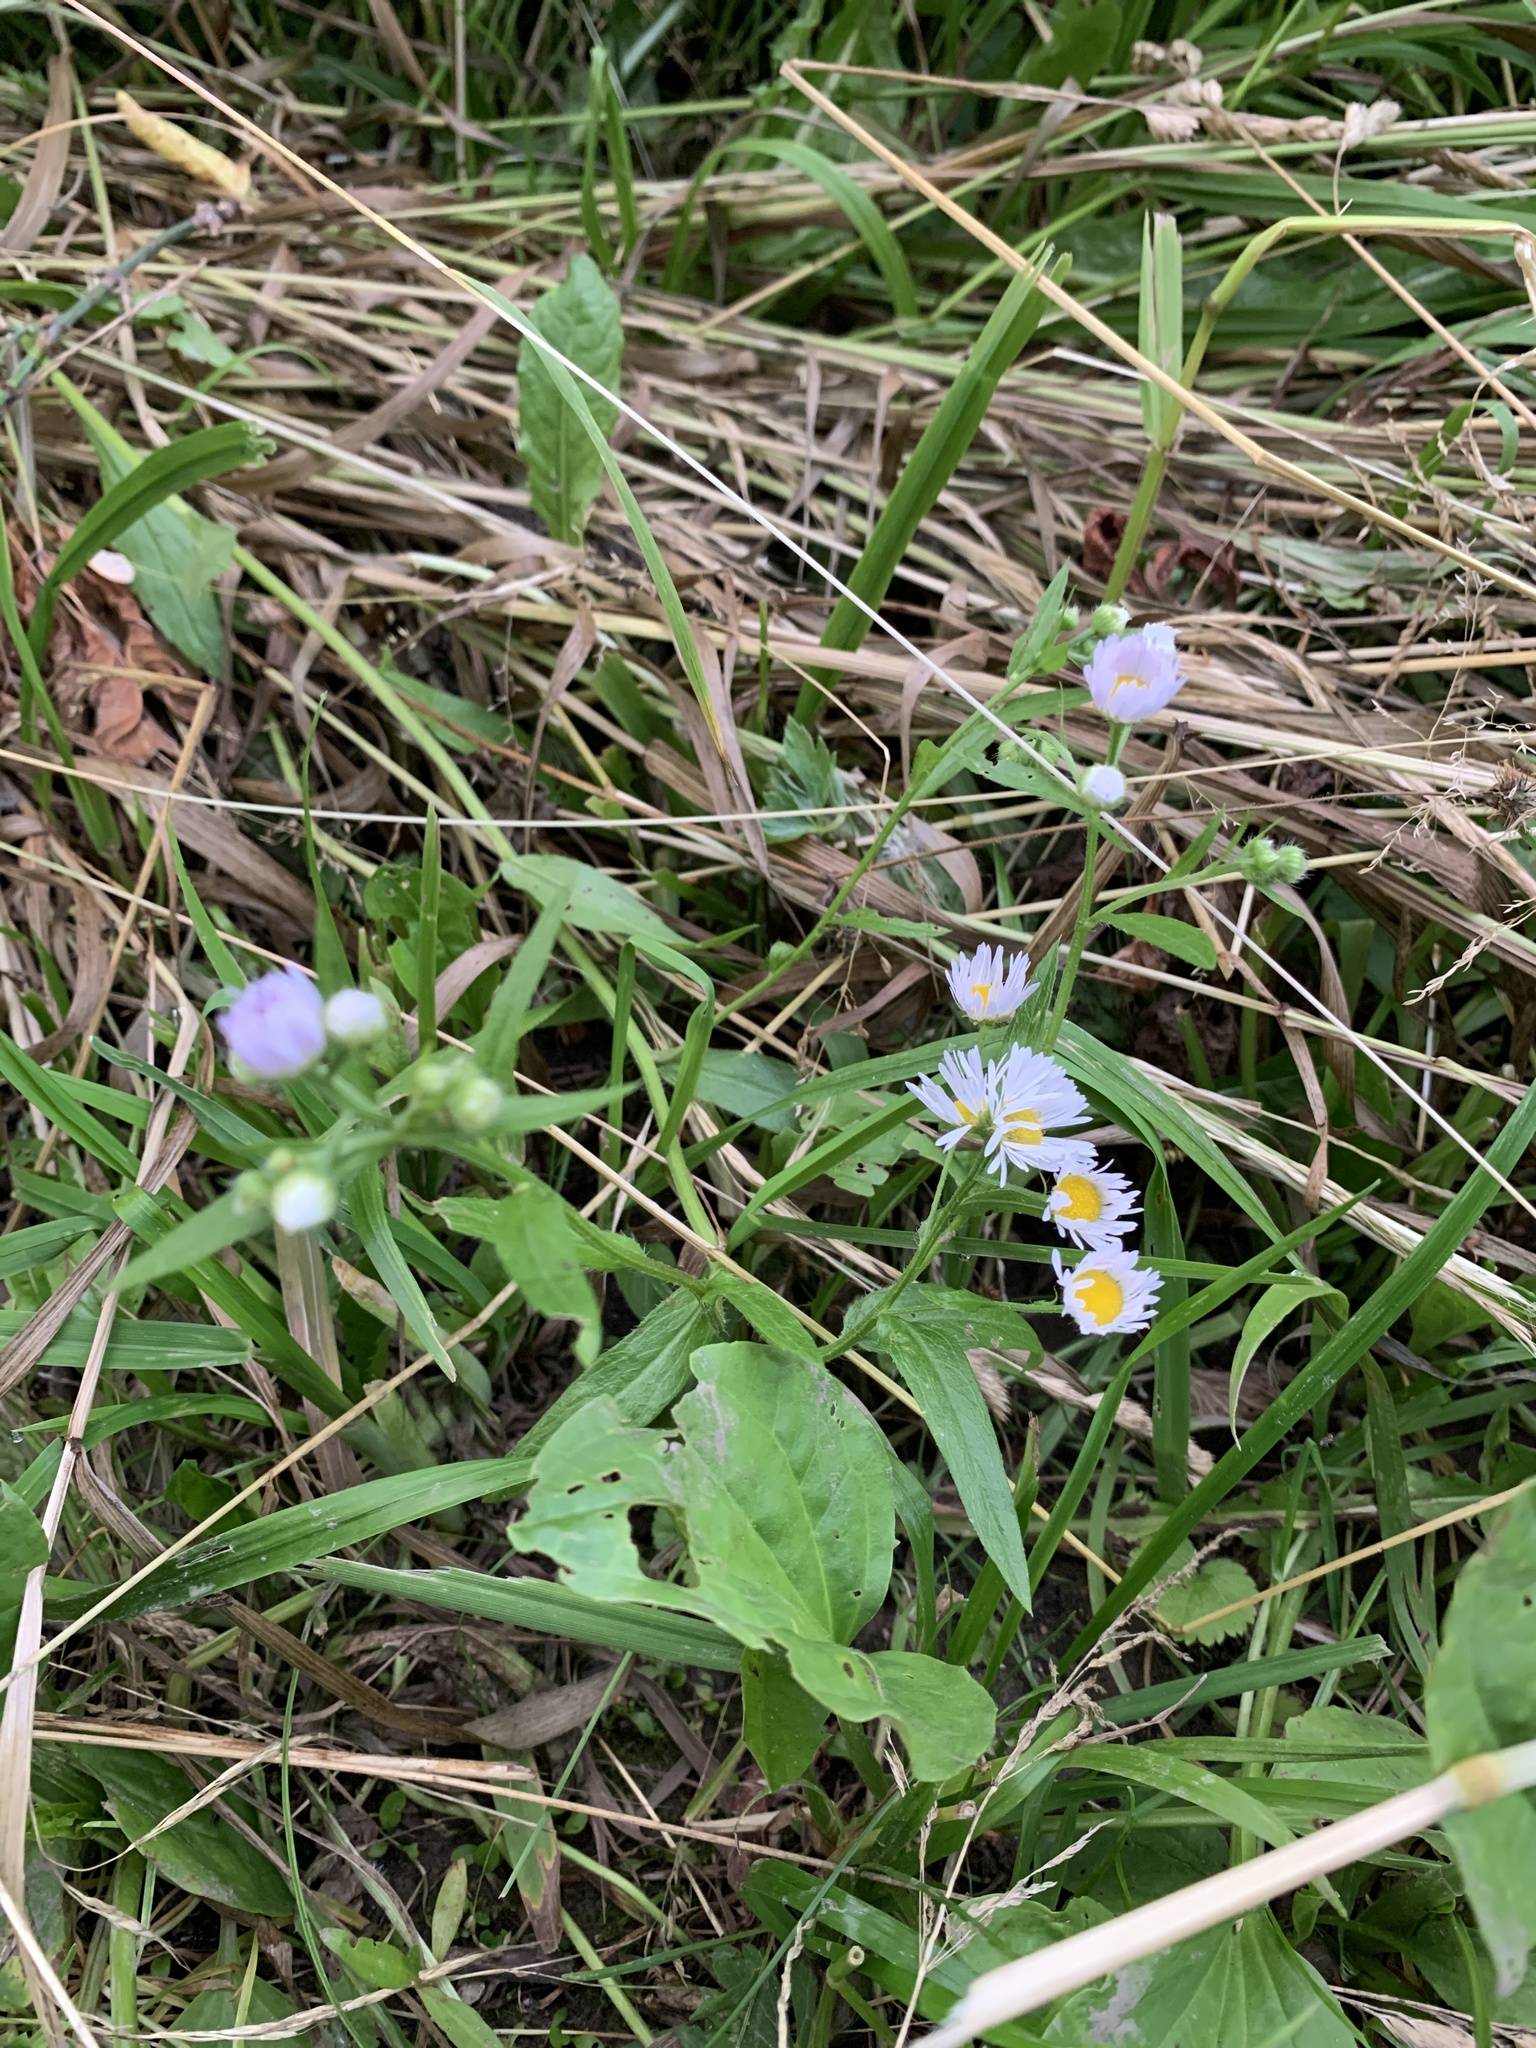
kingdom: Plantae
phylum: Tracheophyta
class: Magnoliopsida
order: Asterales
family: Asteraceae
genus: Erigeron
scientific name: Erigeron annuus
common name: Tall fleabane
